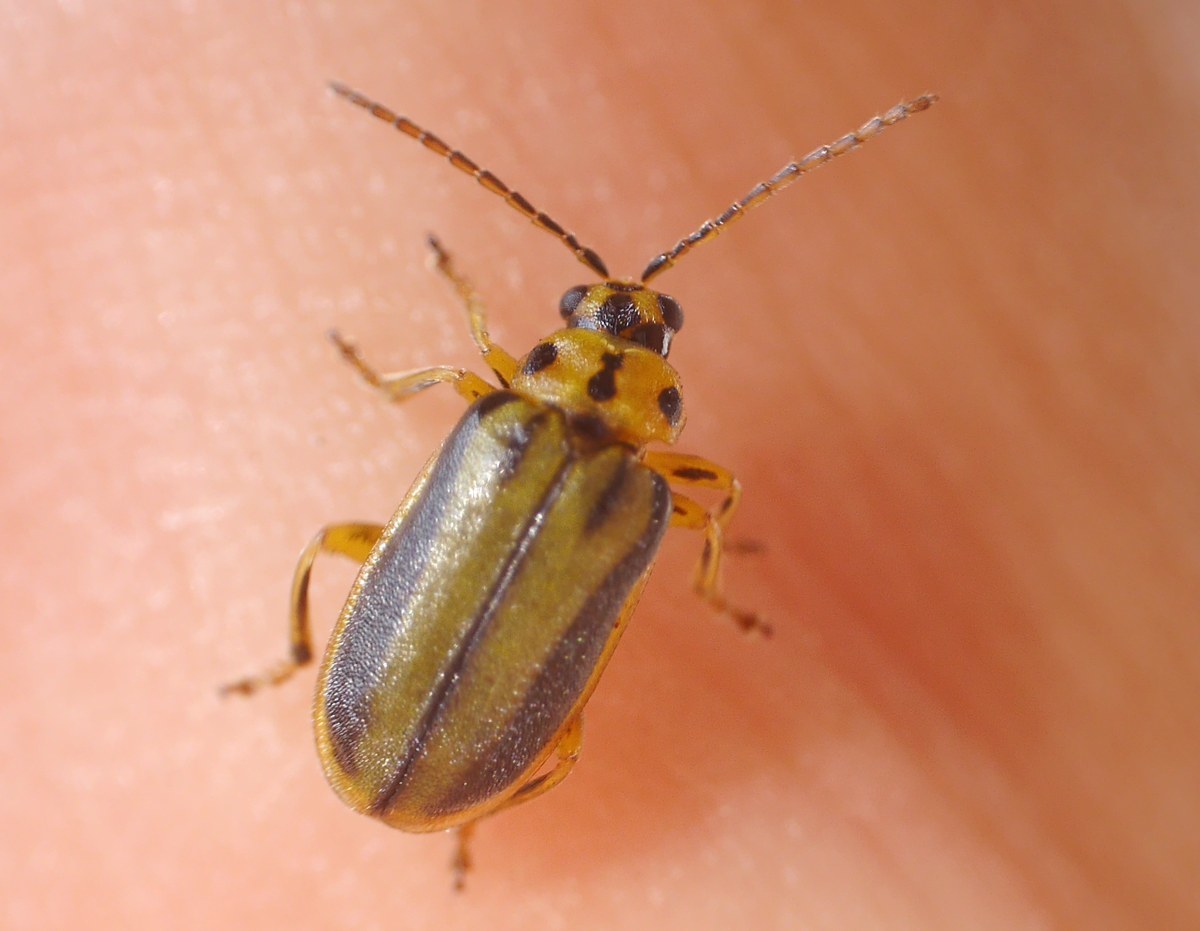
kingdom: Animalia
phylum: Arthropoda
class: Insecta
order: Coleoptera
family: Chrysomelidae
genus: Xanthogaleruca
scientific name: Xanthogaleruca luteola
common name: Elm leaf beetle
